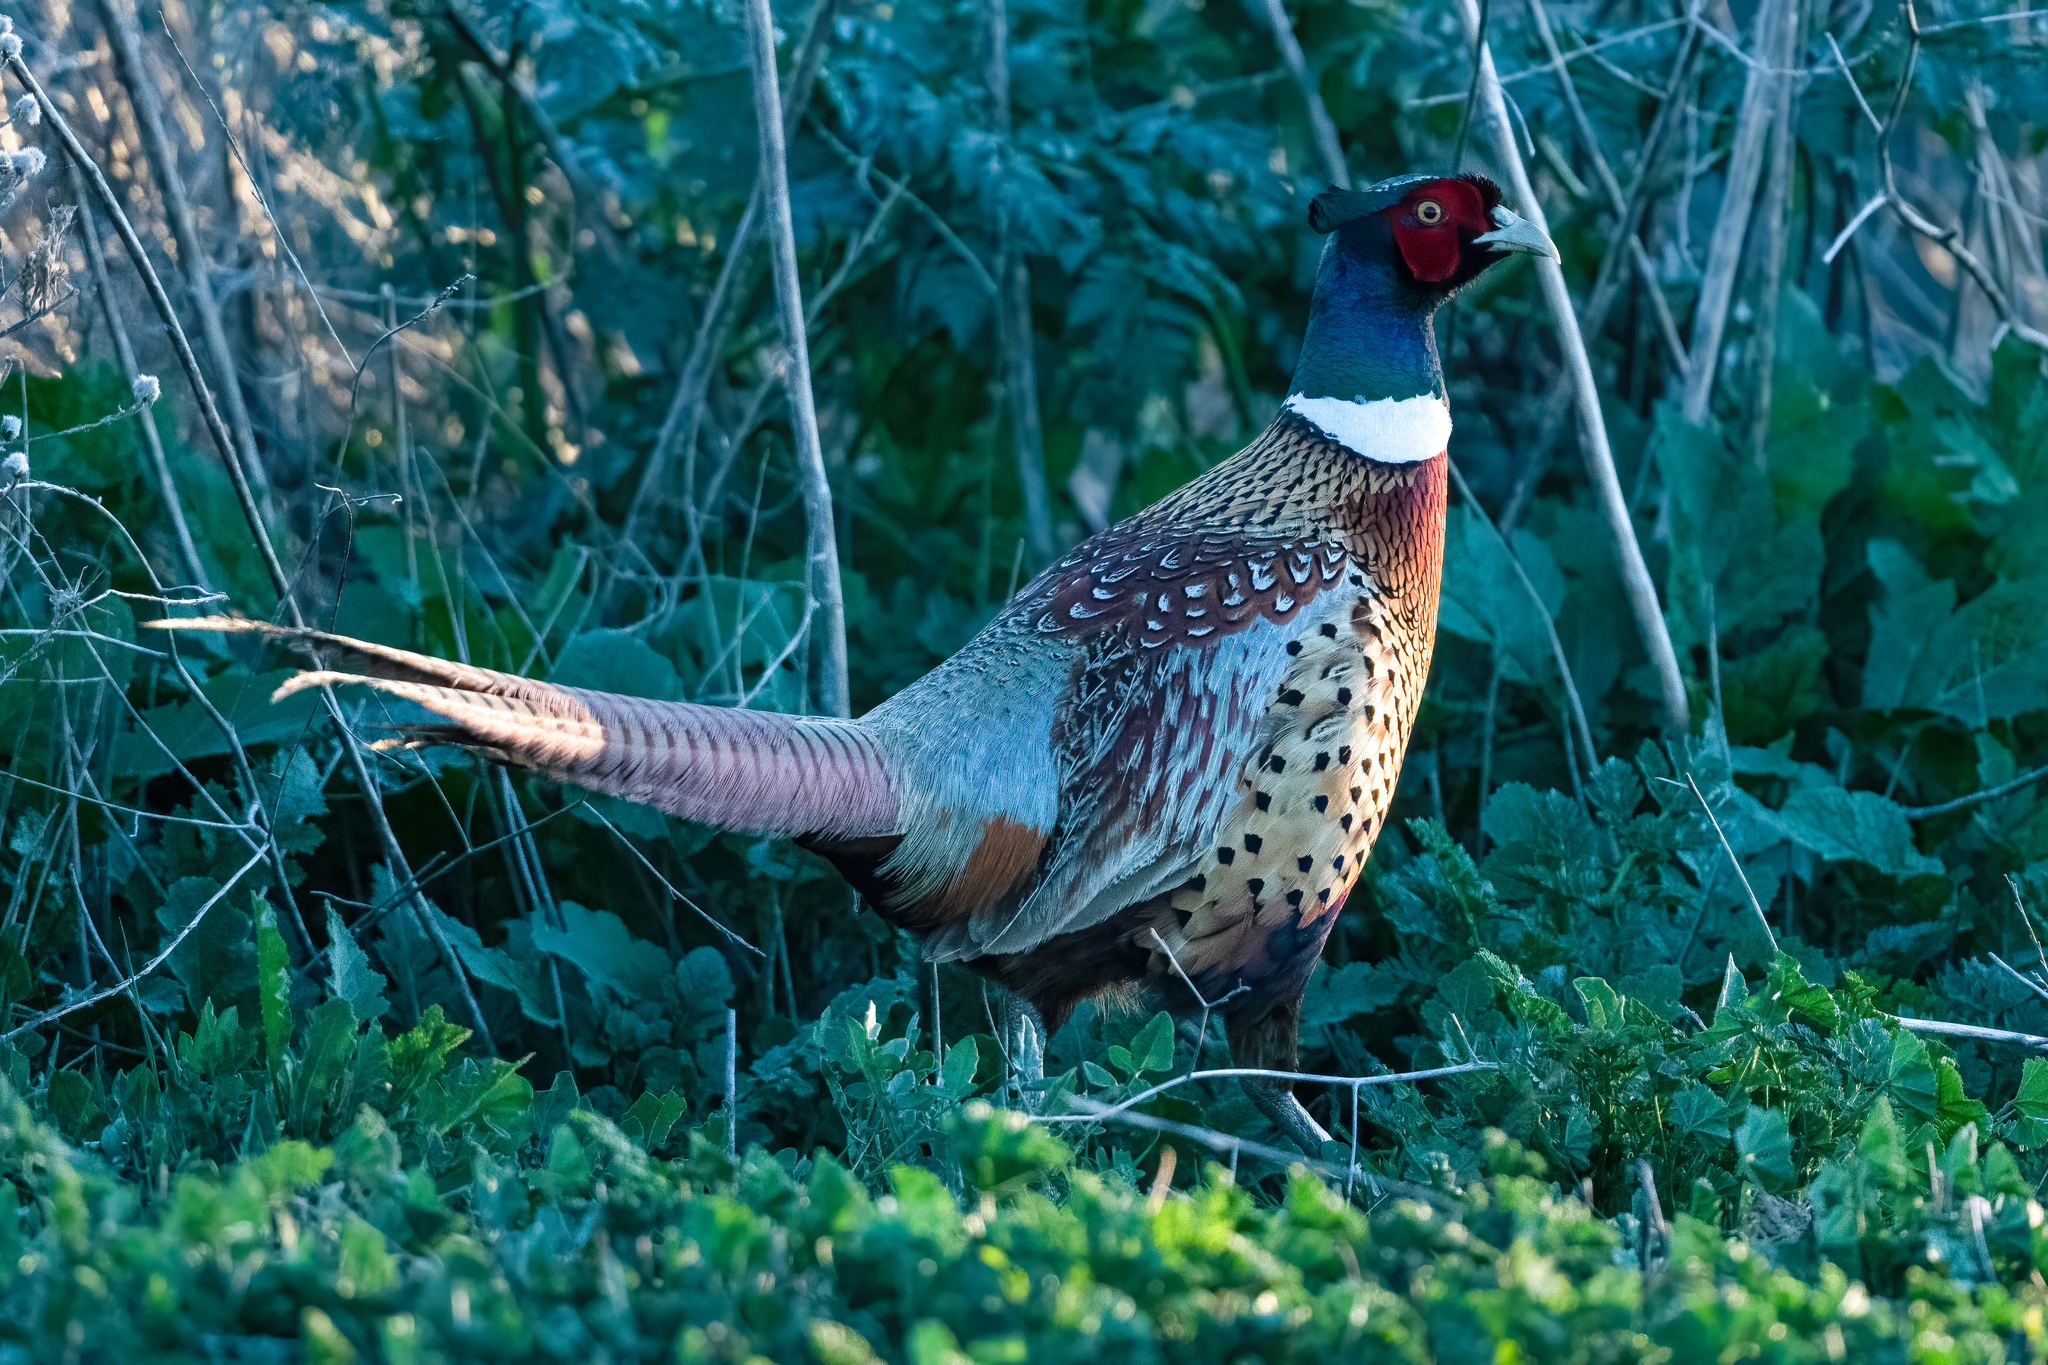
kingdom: Animalia
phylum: Chordata
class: Aves
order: Galliformes
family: Phasianidae
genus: Phasianus
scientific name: Phasianus colchicus
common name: Common pheasant
